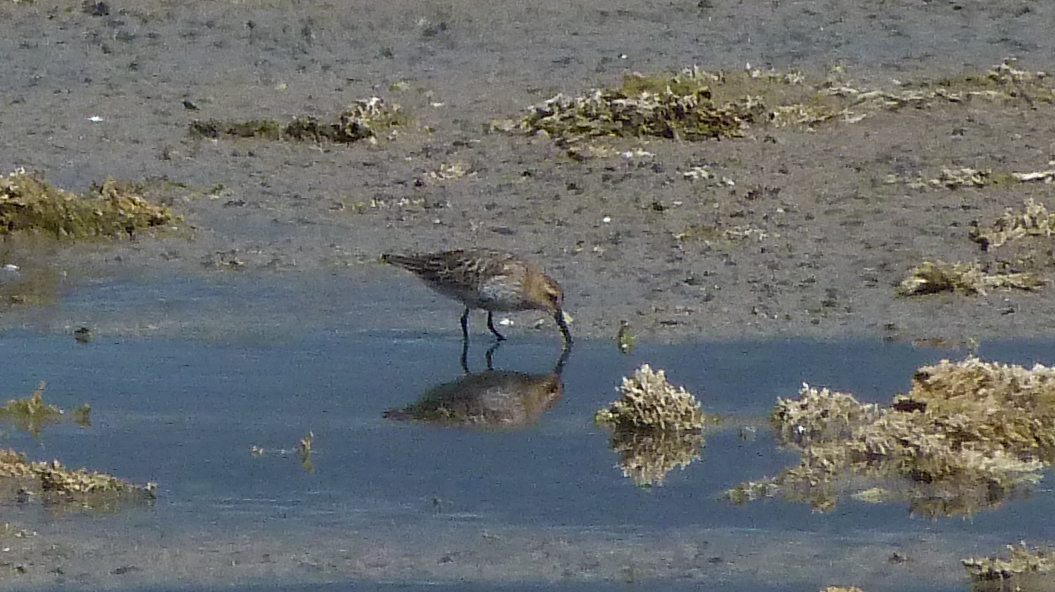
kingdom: Animalia
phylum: Chordata
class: Aves
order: Charadriiformes
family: Scolopacidae
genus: Calidris
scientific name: Calidris alpina
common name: Dunlin
